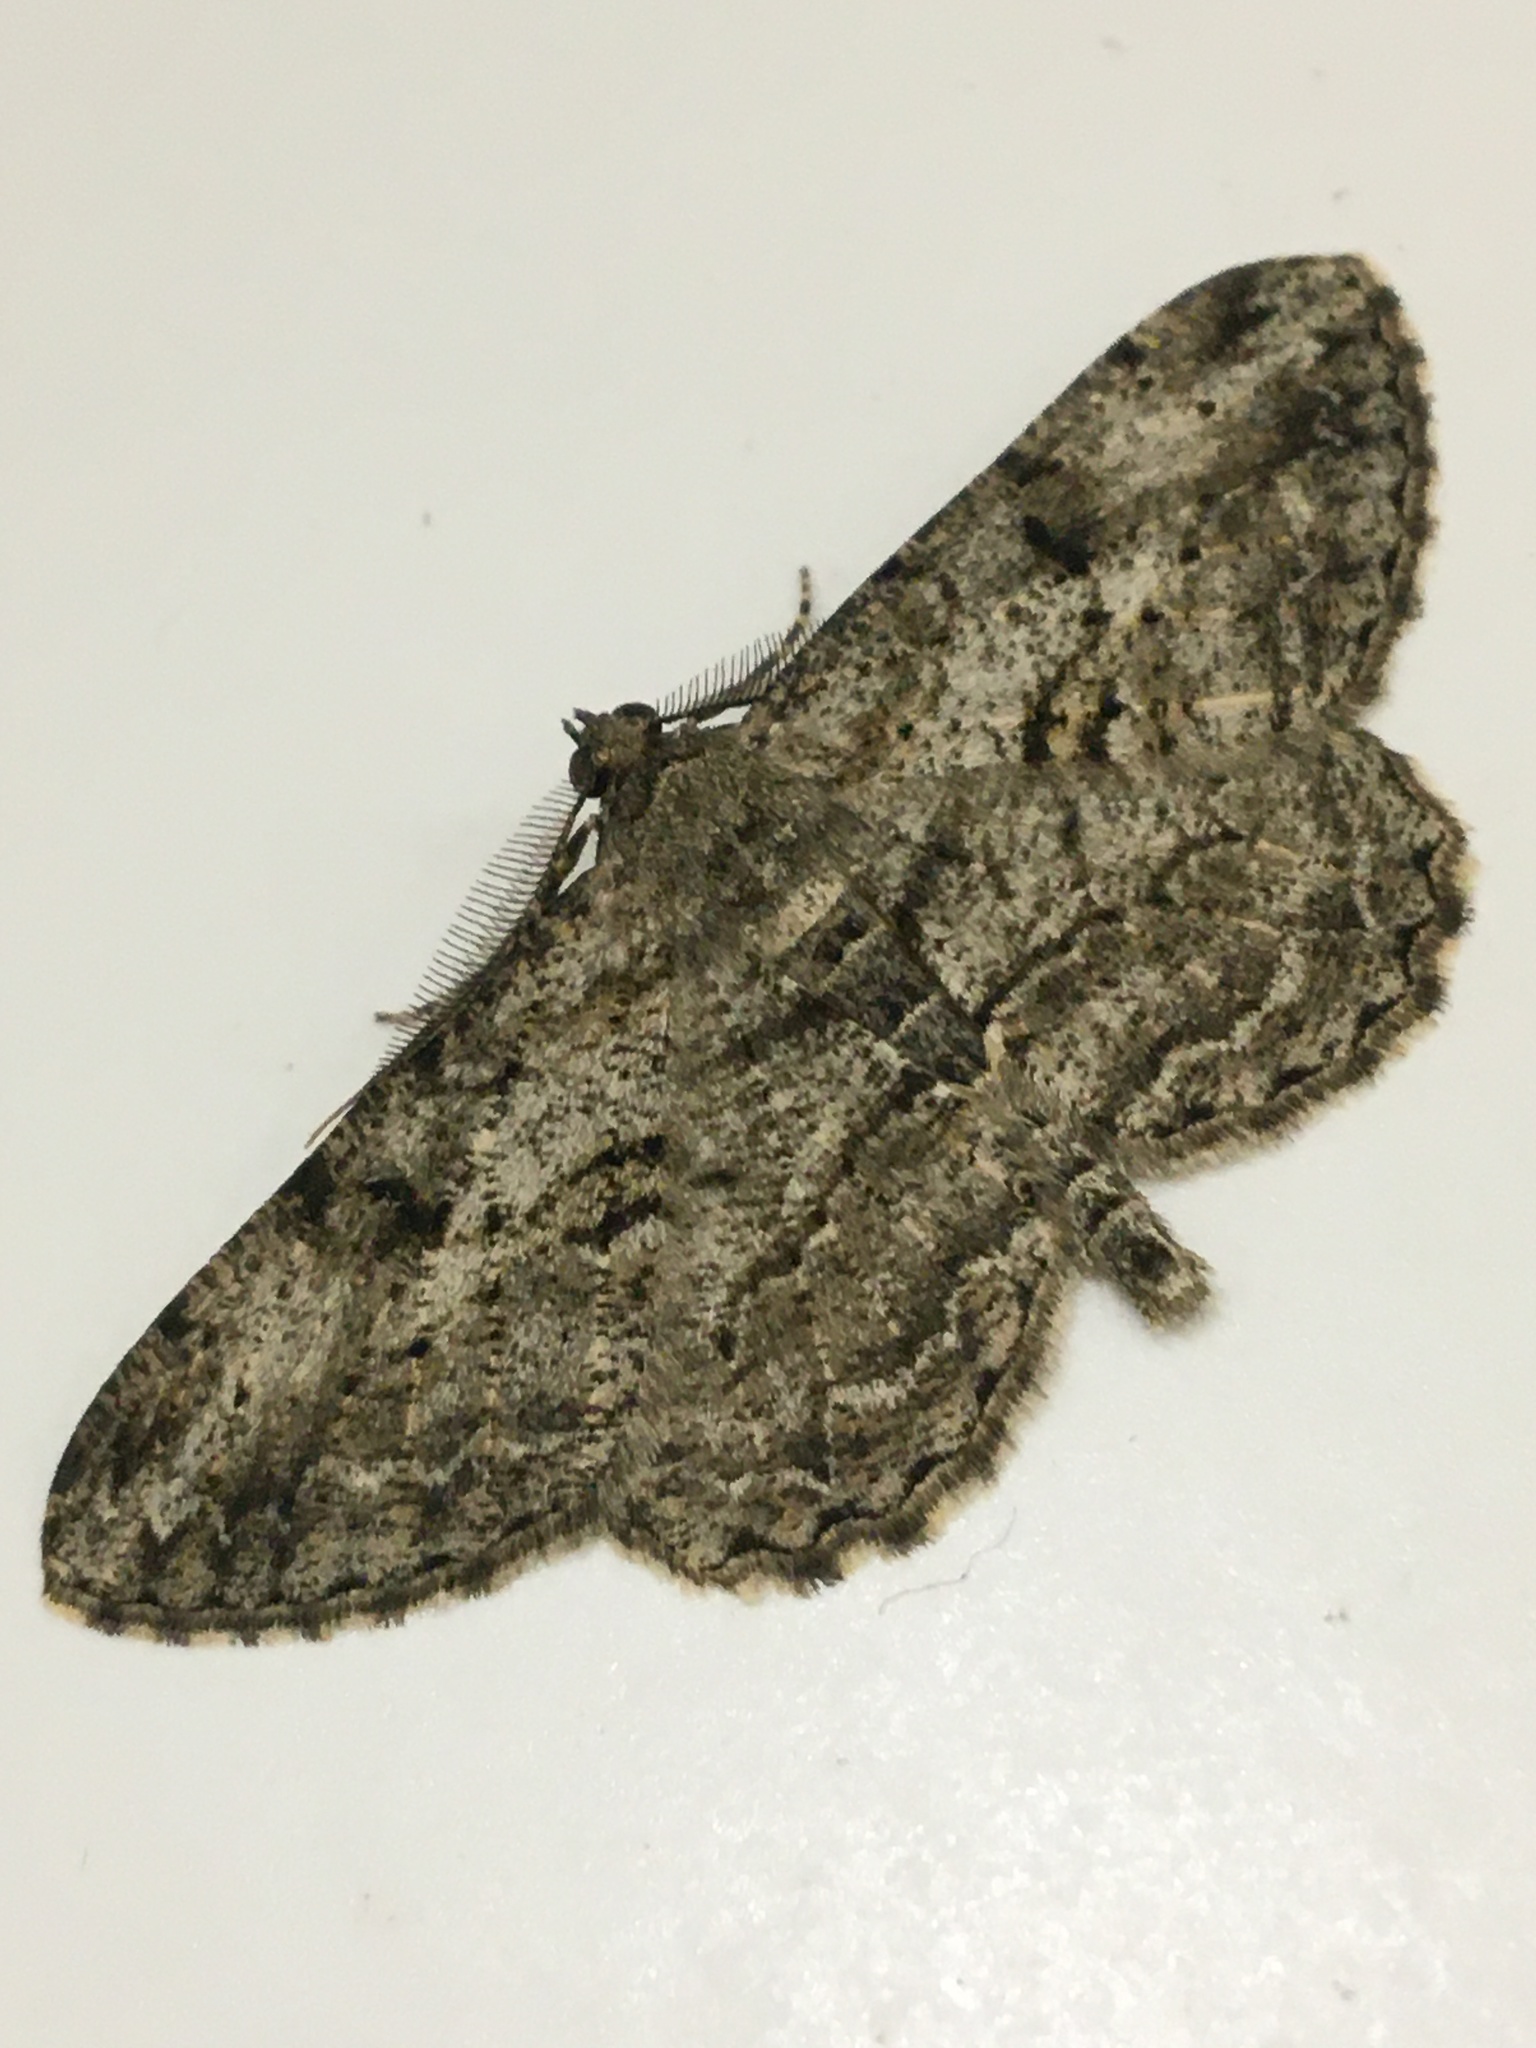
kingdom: Animalia
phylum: Arthropoda
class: Insecta
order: Lepidoptera
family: Geometridae
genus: Peribatodes
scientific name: Peribatodes rhomboidaria
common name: Willow beauty
